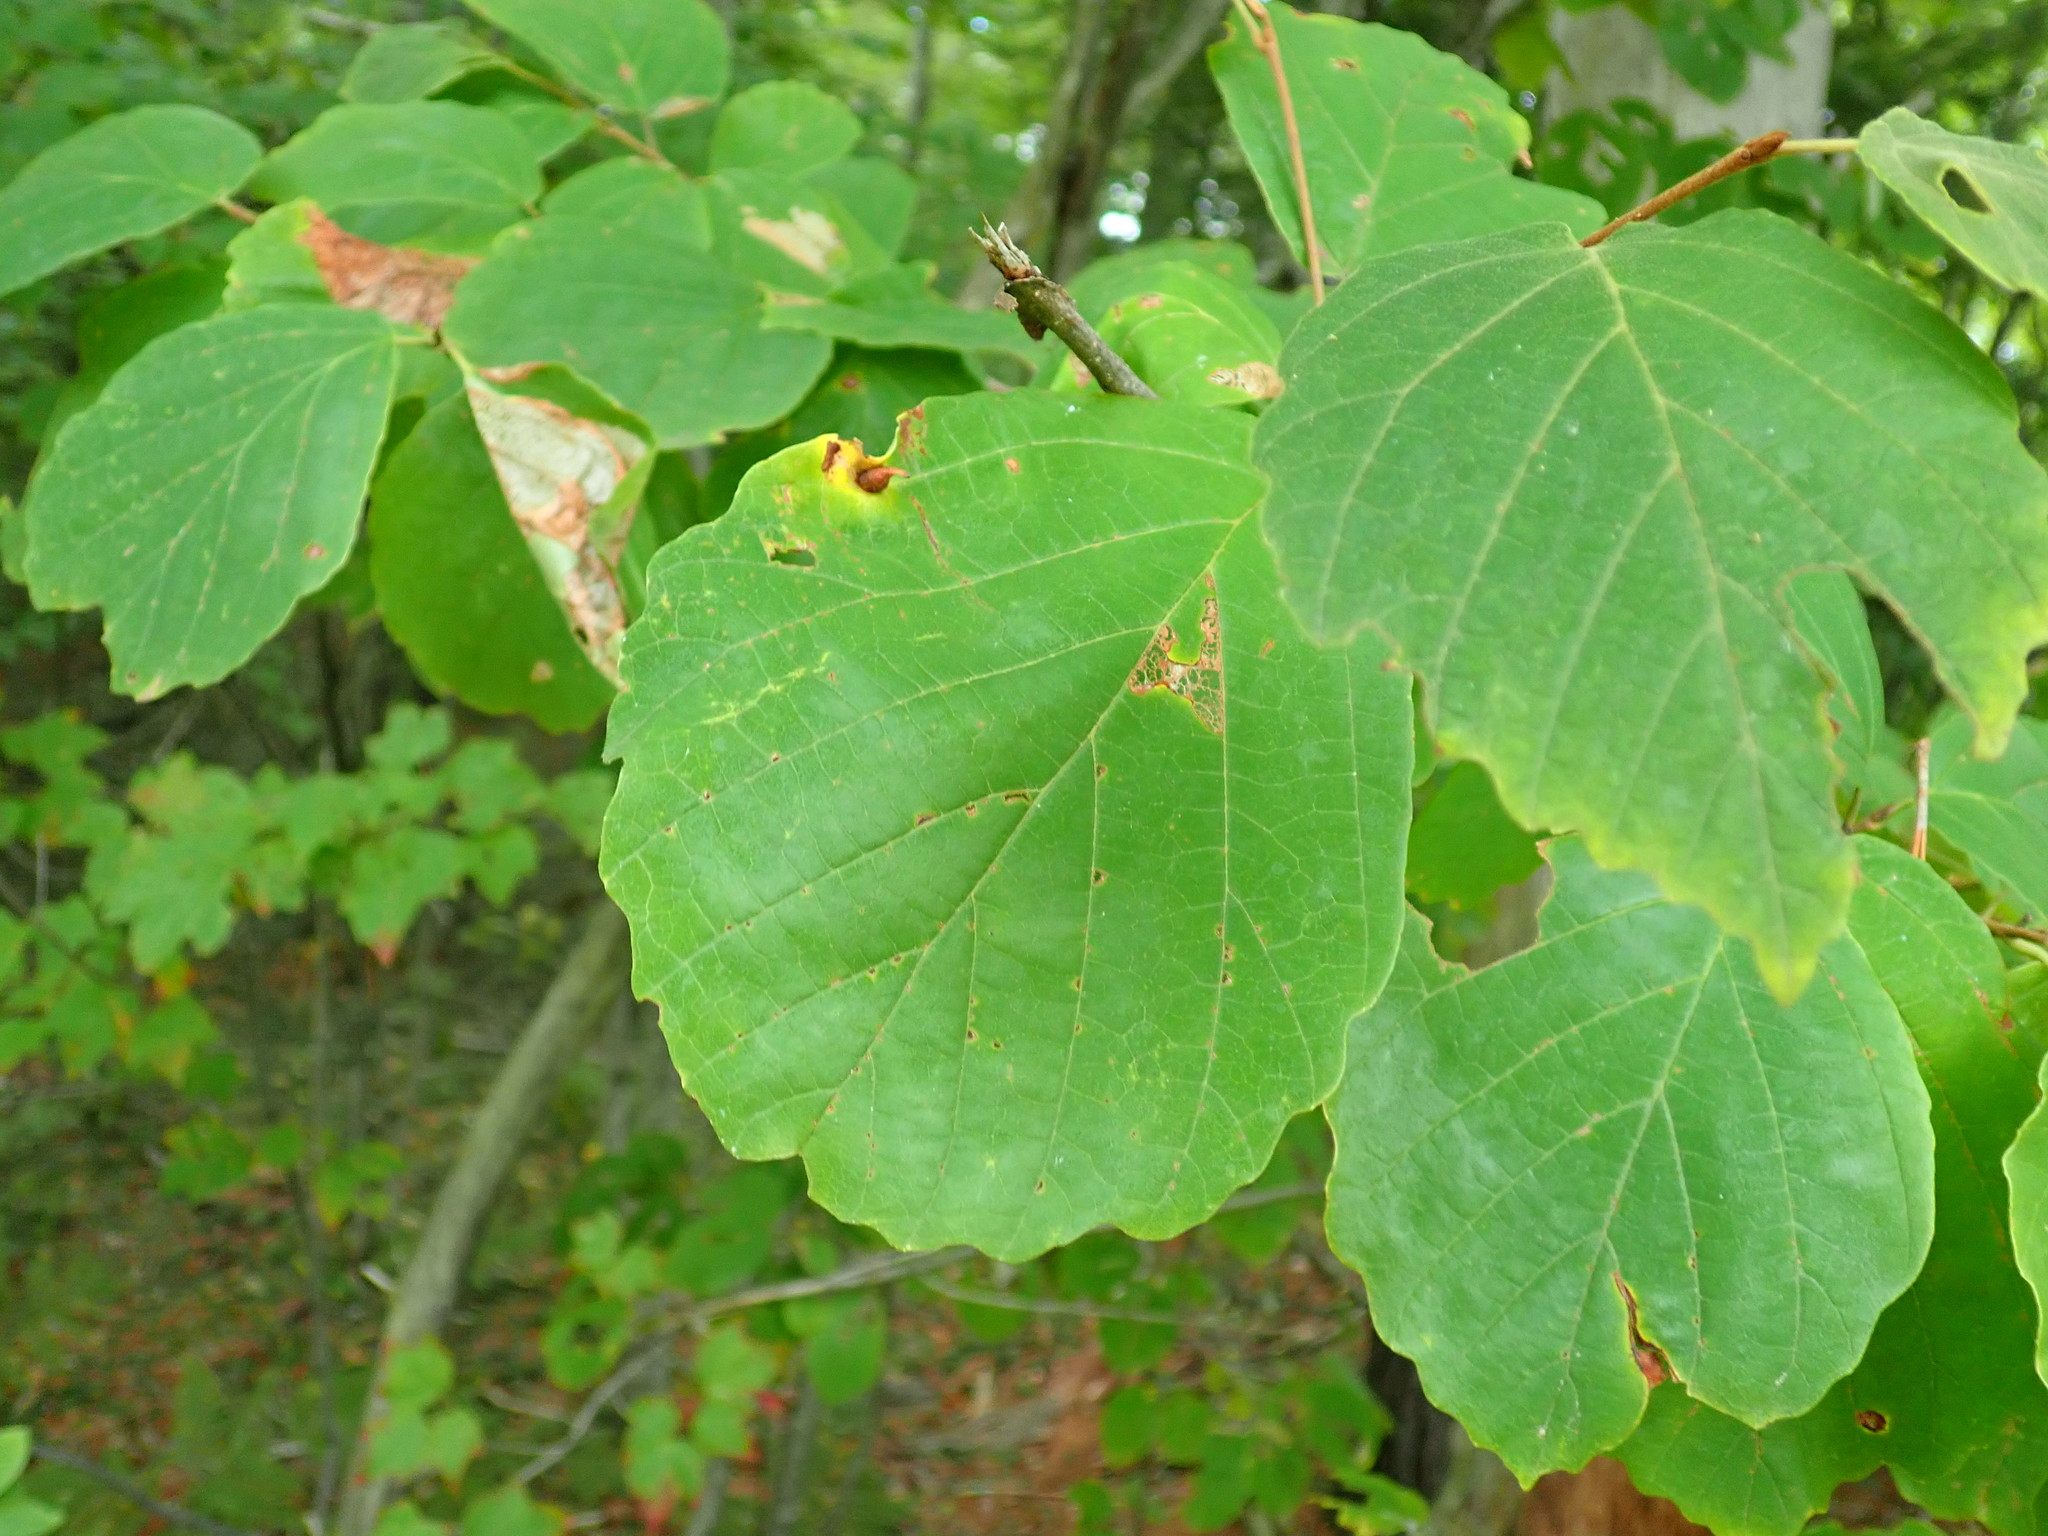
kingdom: Animalia
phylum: Arthropoda
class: Insecta
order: Hemiptera
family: Aphididae
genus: Hormaphis
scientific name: Hormaphis hamamelidis
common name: Witch-hazel cone gall aphid
